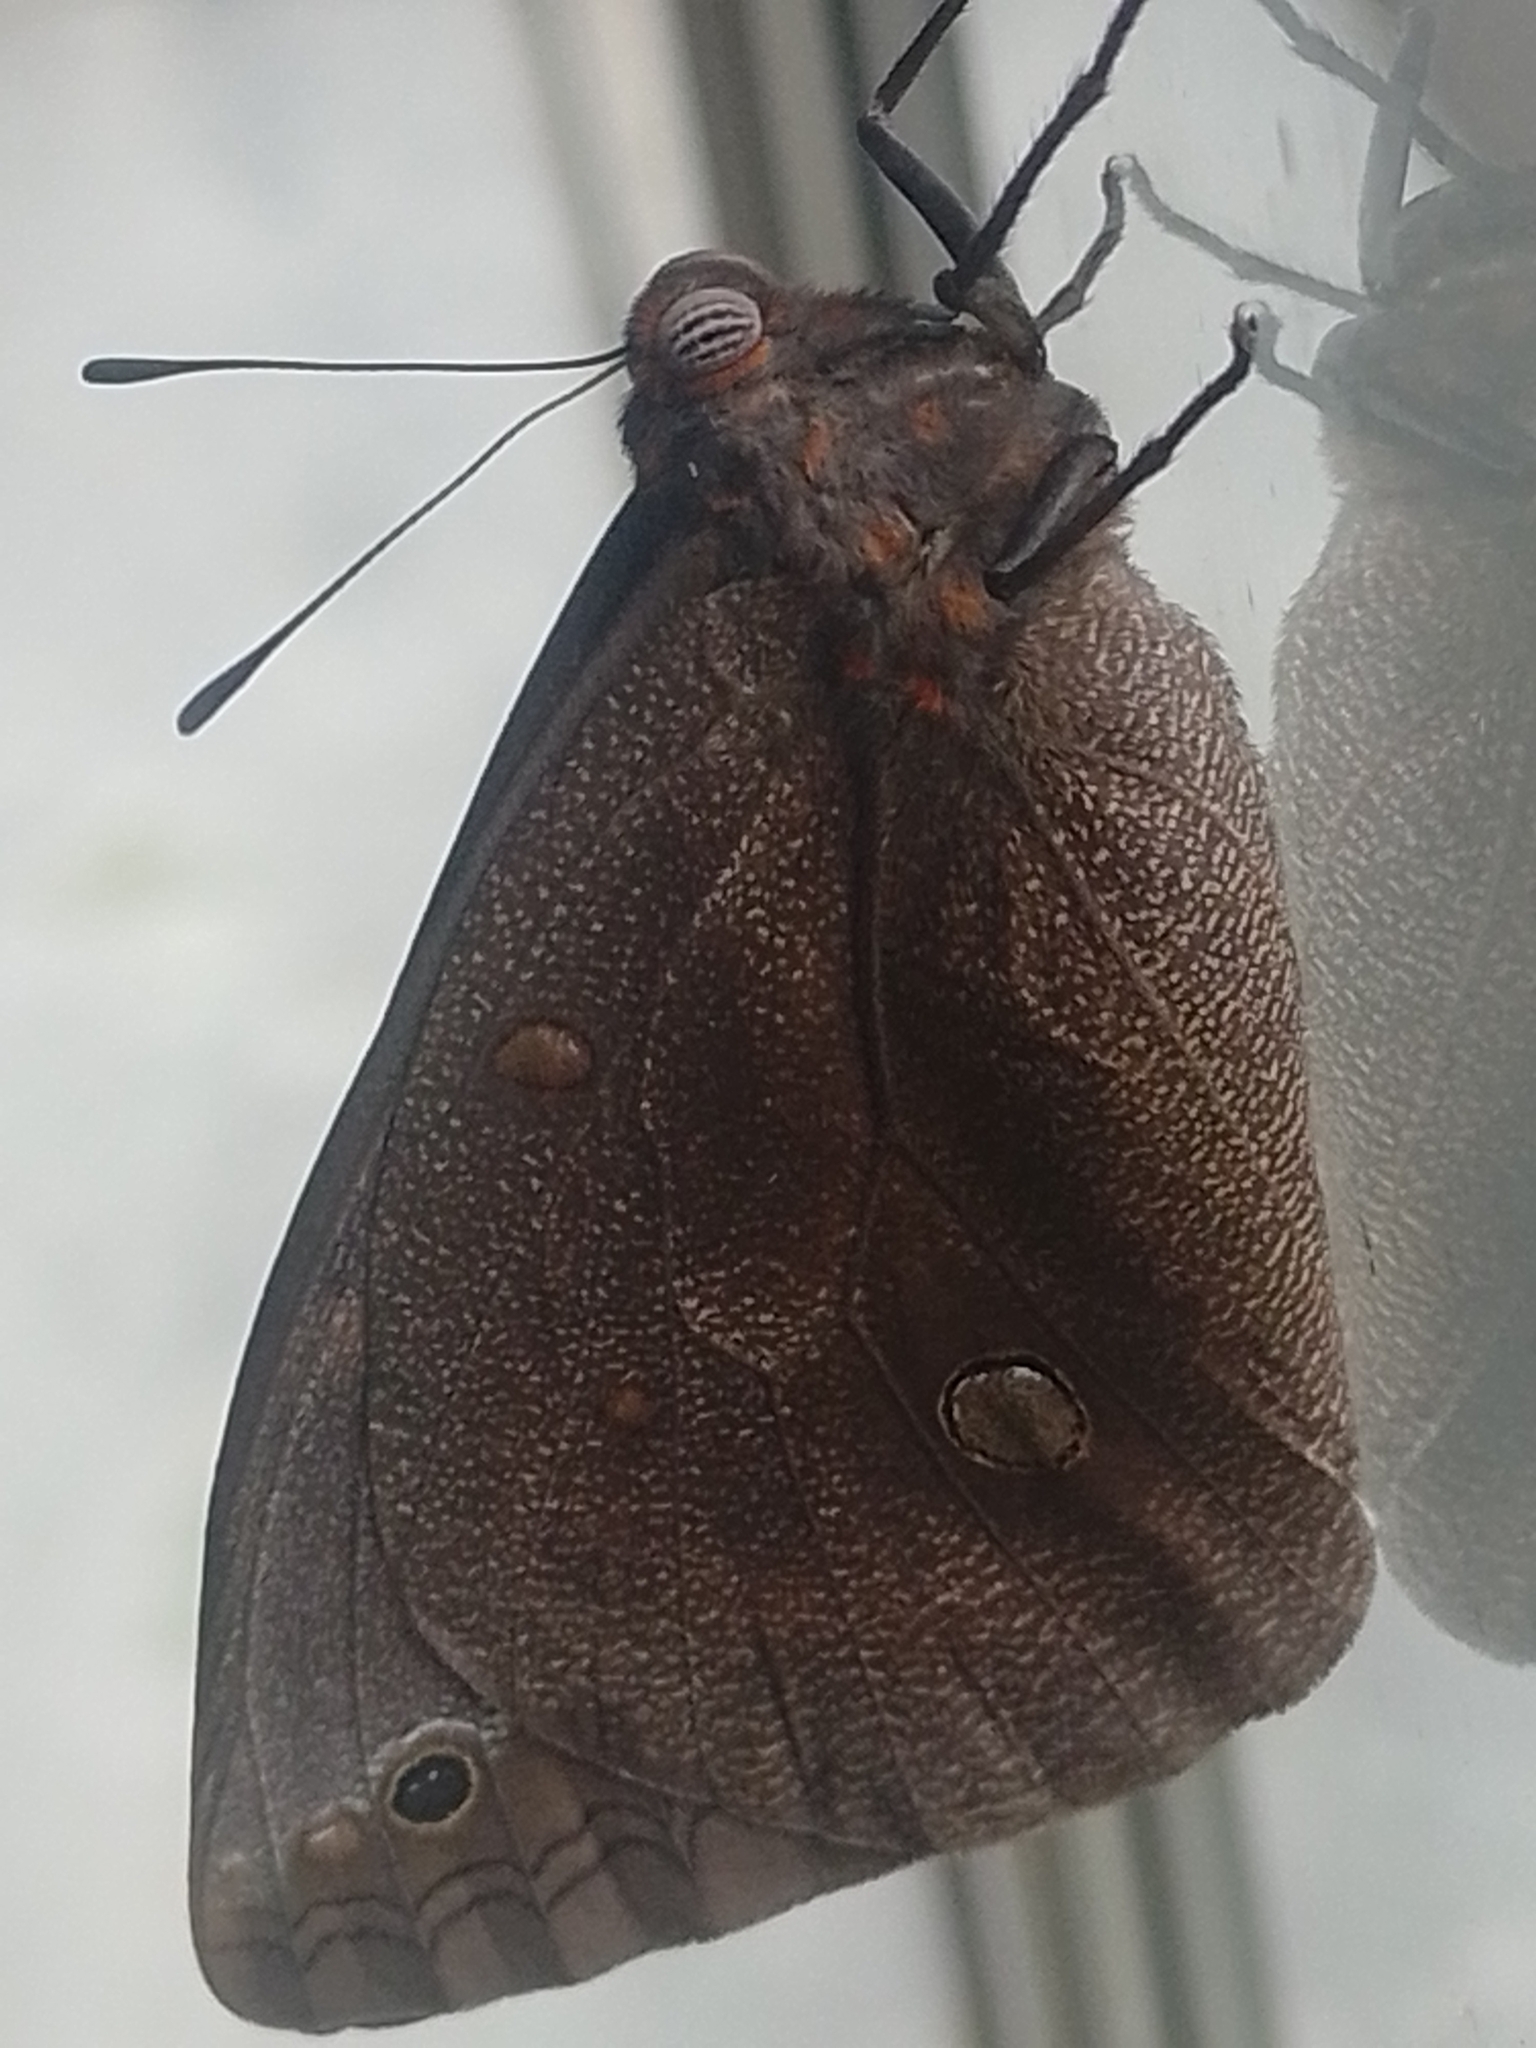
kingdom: Animalia
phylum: Arthropoda
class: Insecta
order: Lepidoptera
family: Nymphalidae
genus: Brassolis
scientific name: Brassolis sophorae
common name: Coconut caterpillar
